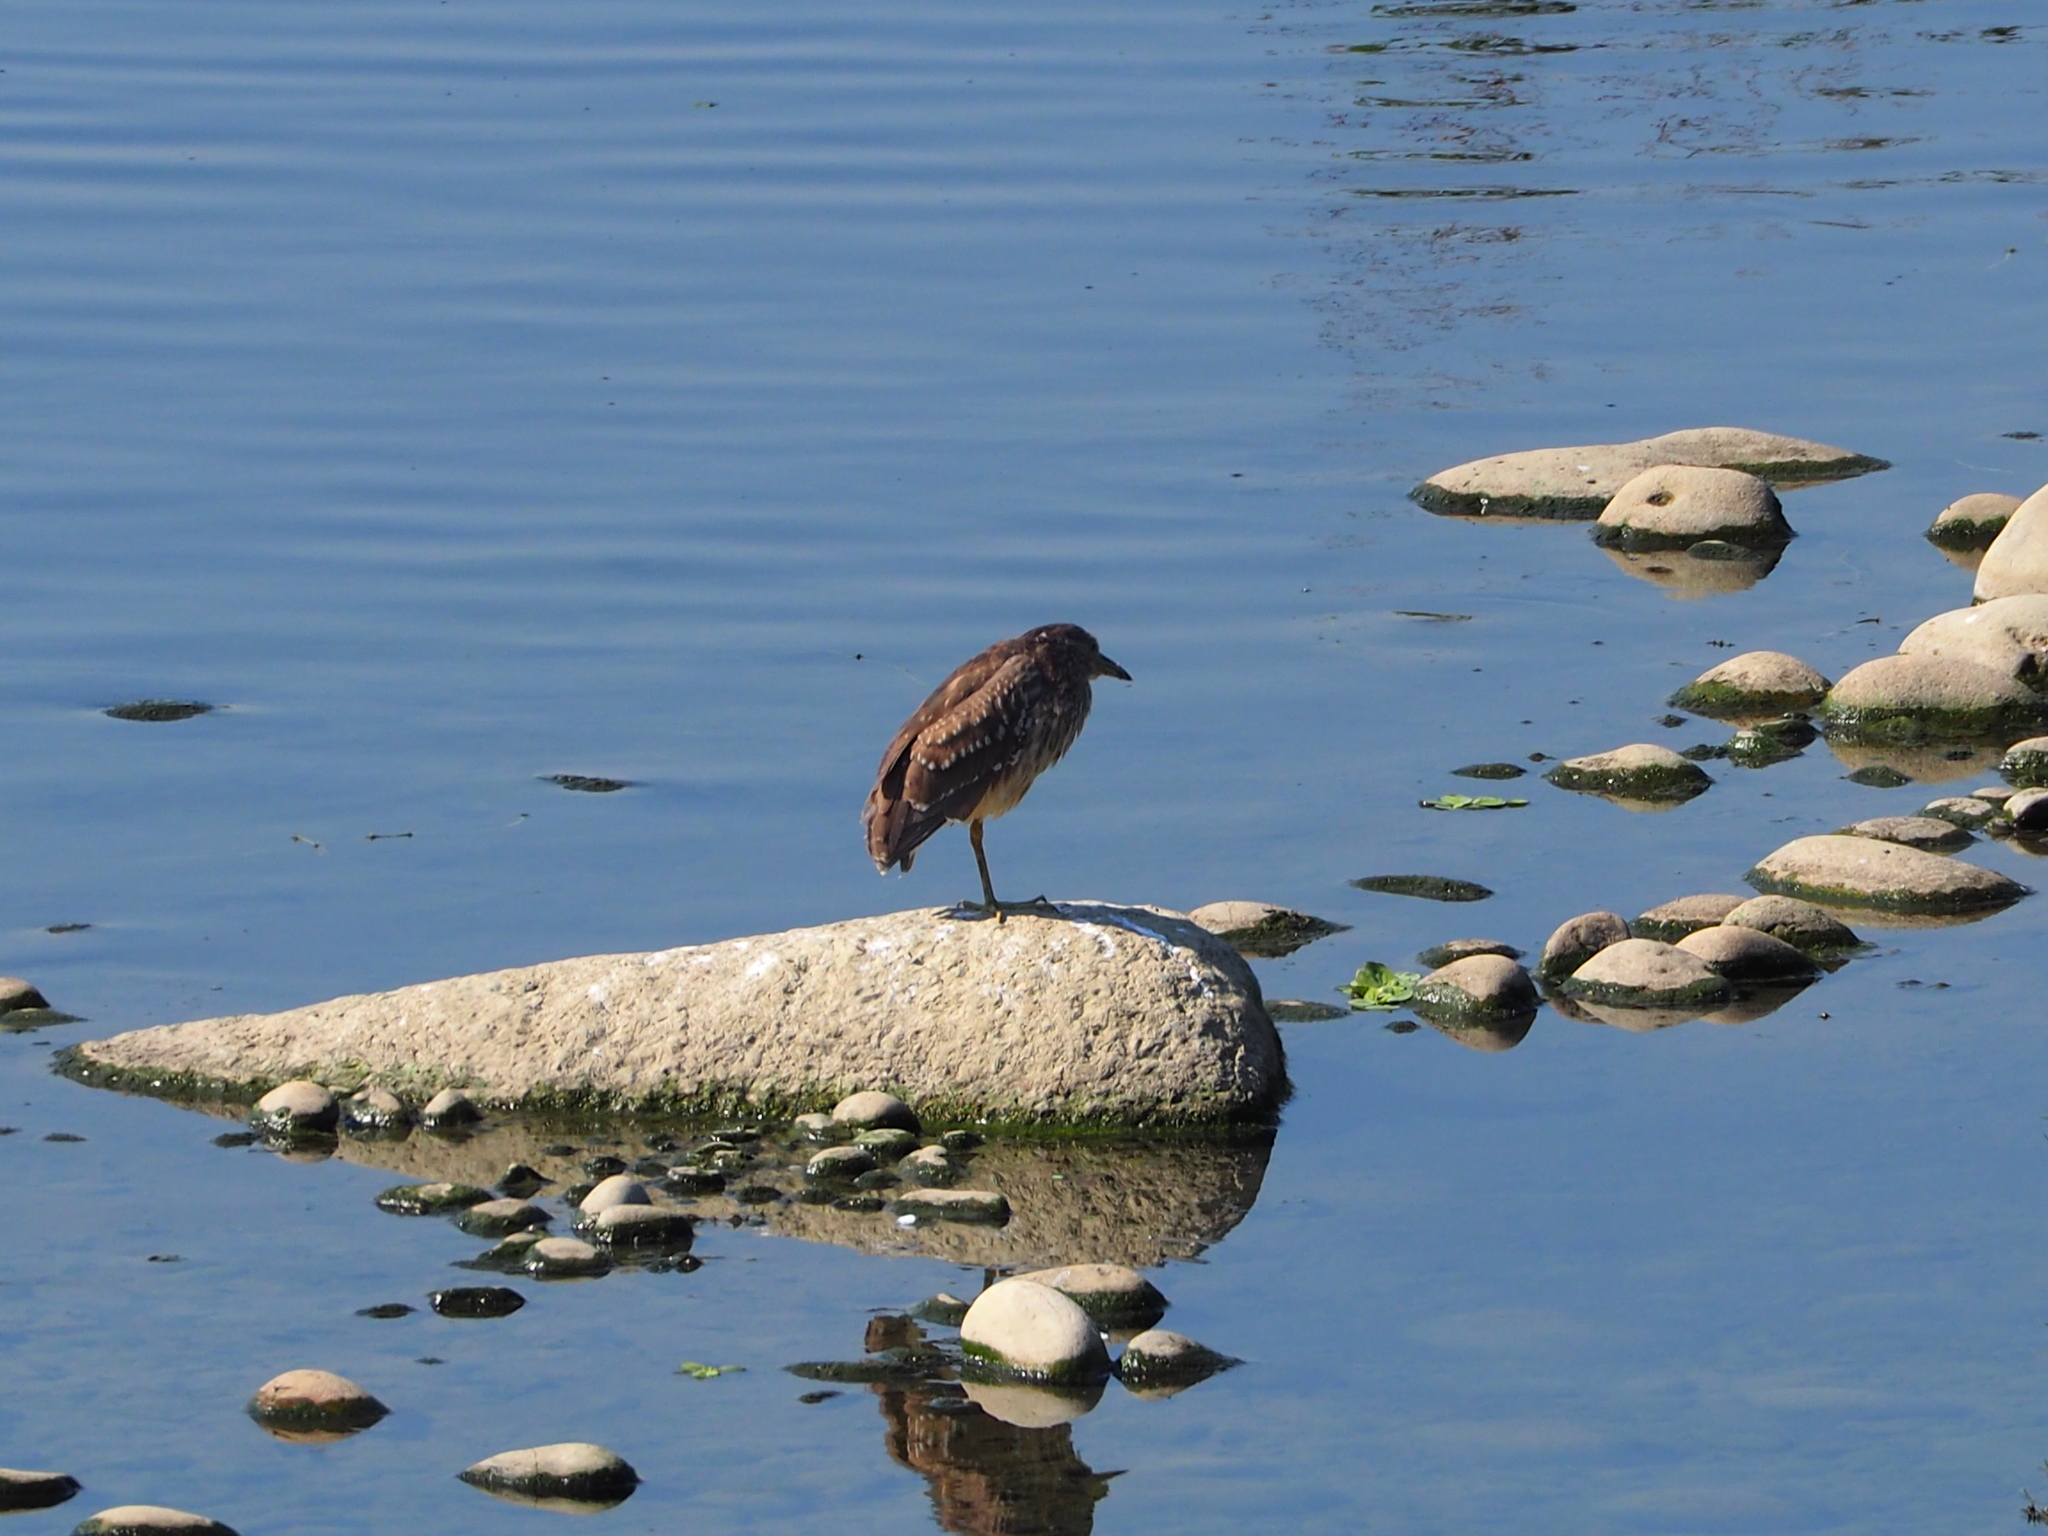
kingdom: Animalia
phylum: Chordata
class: Aves
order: Pelecaniformes
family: Ardeidae
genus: Nycticorax
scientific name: Nycticorax nycticorax
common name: Black-crowned night heron
